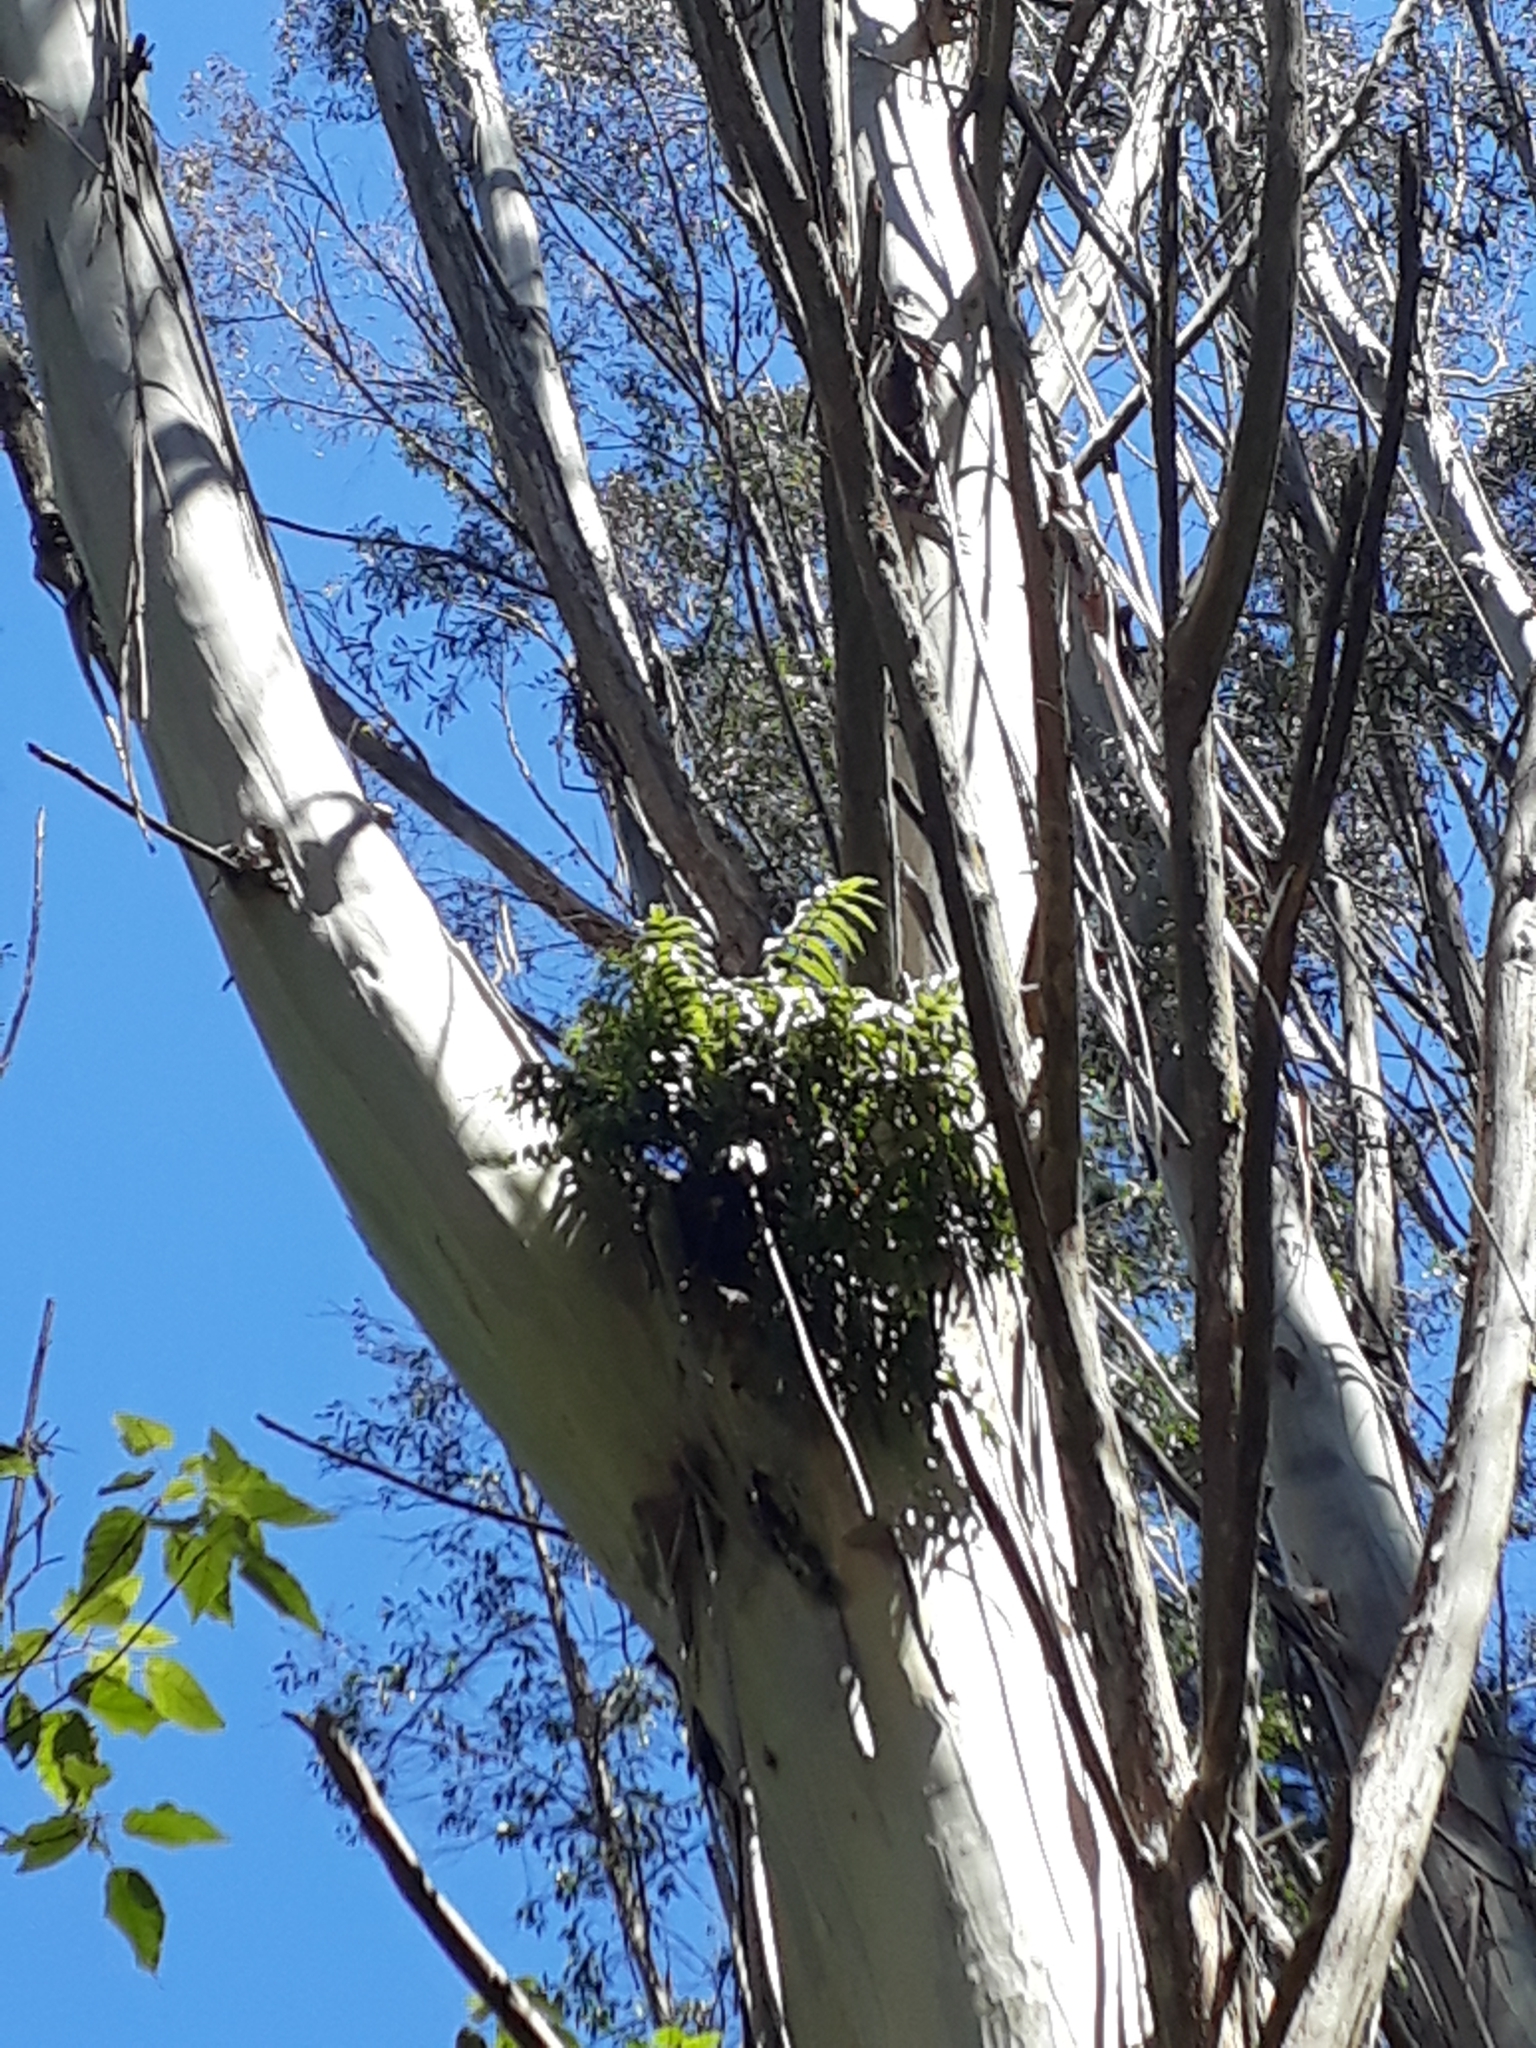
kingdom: Plantae
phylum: Tracheophyta
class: Polypodiopsida
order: Polypodiales
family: Aspleniaceae
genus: Asplenium
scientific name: Asplenium oblongifolium
